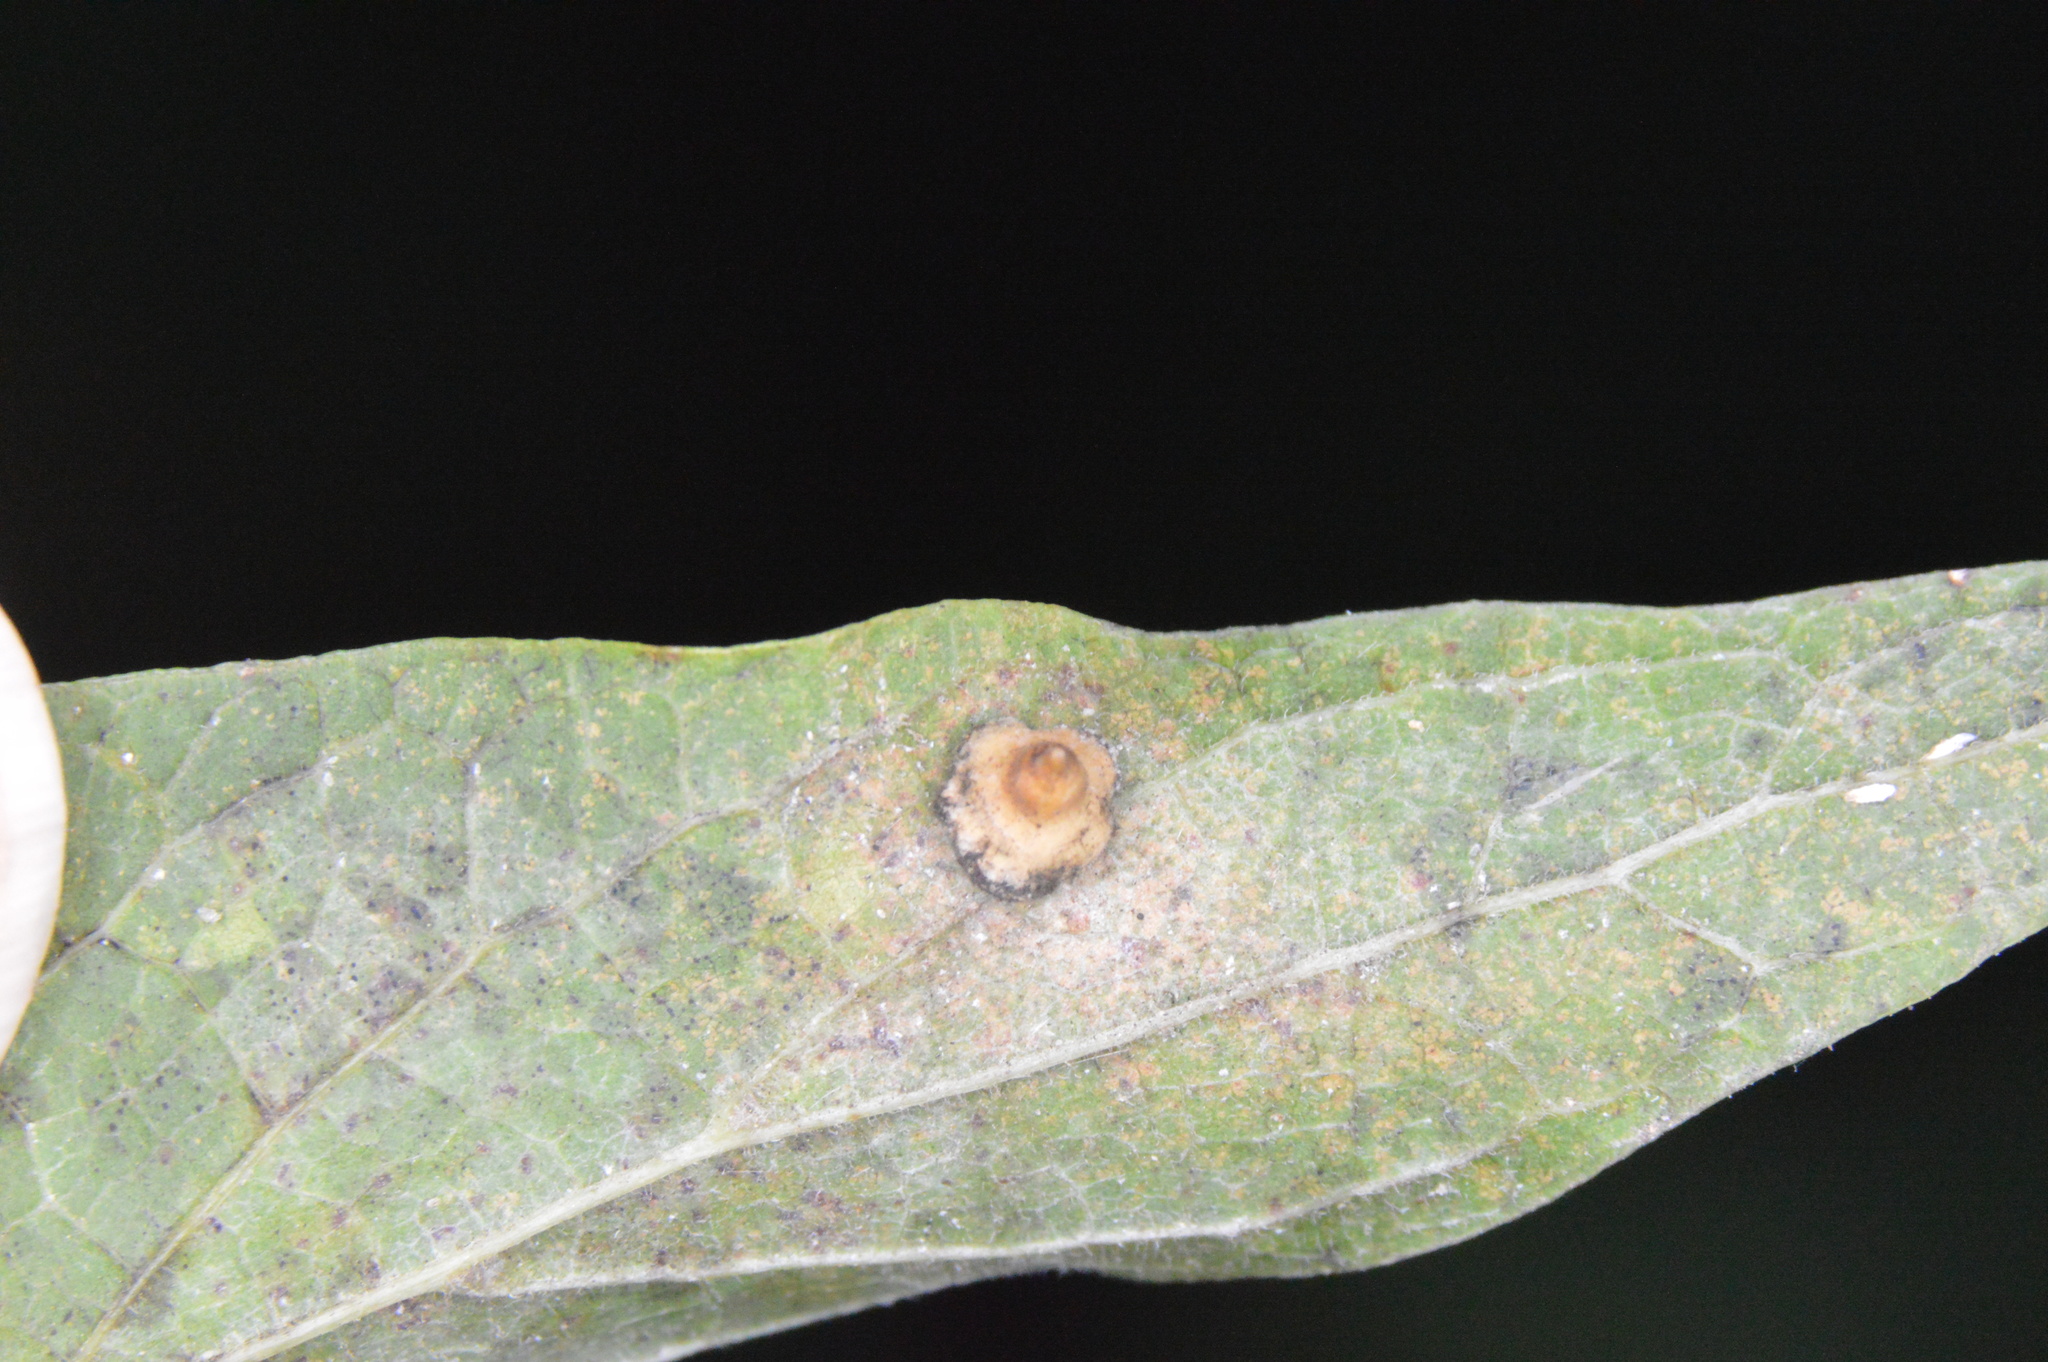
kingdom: Animalia
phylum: Arthropoda
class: Insecta
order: Diptera
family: Cecidomyiidae
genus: Celticecis
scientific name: Celticecis spiniformis
